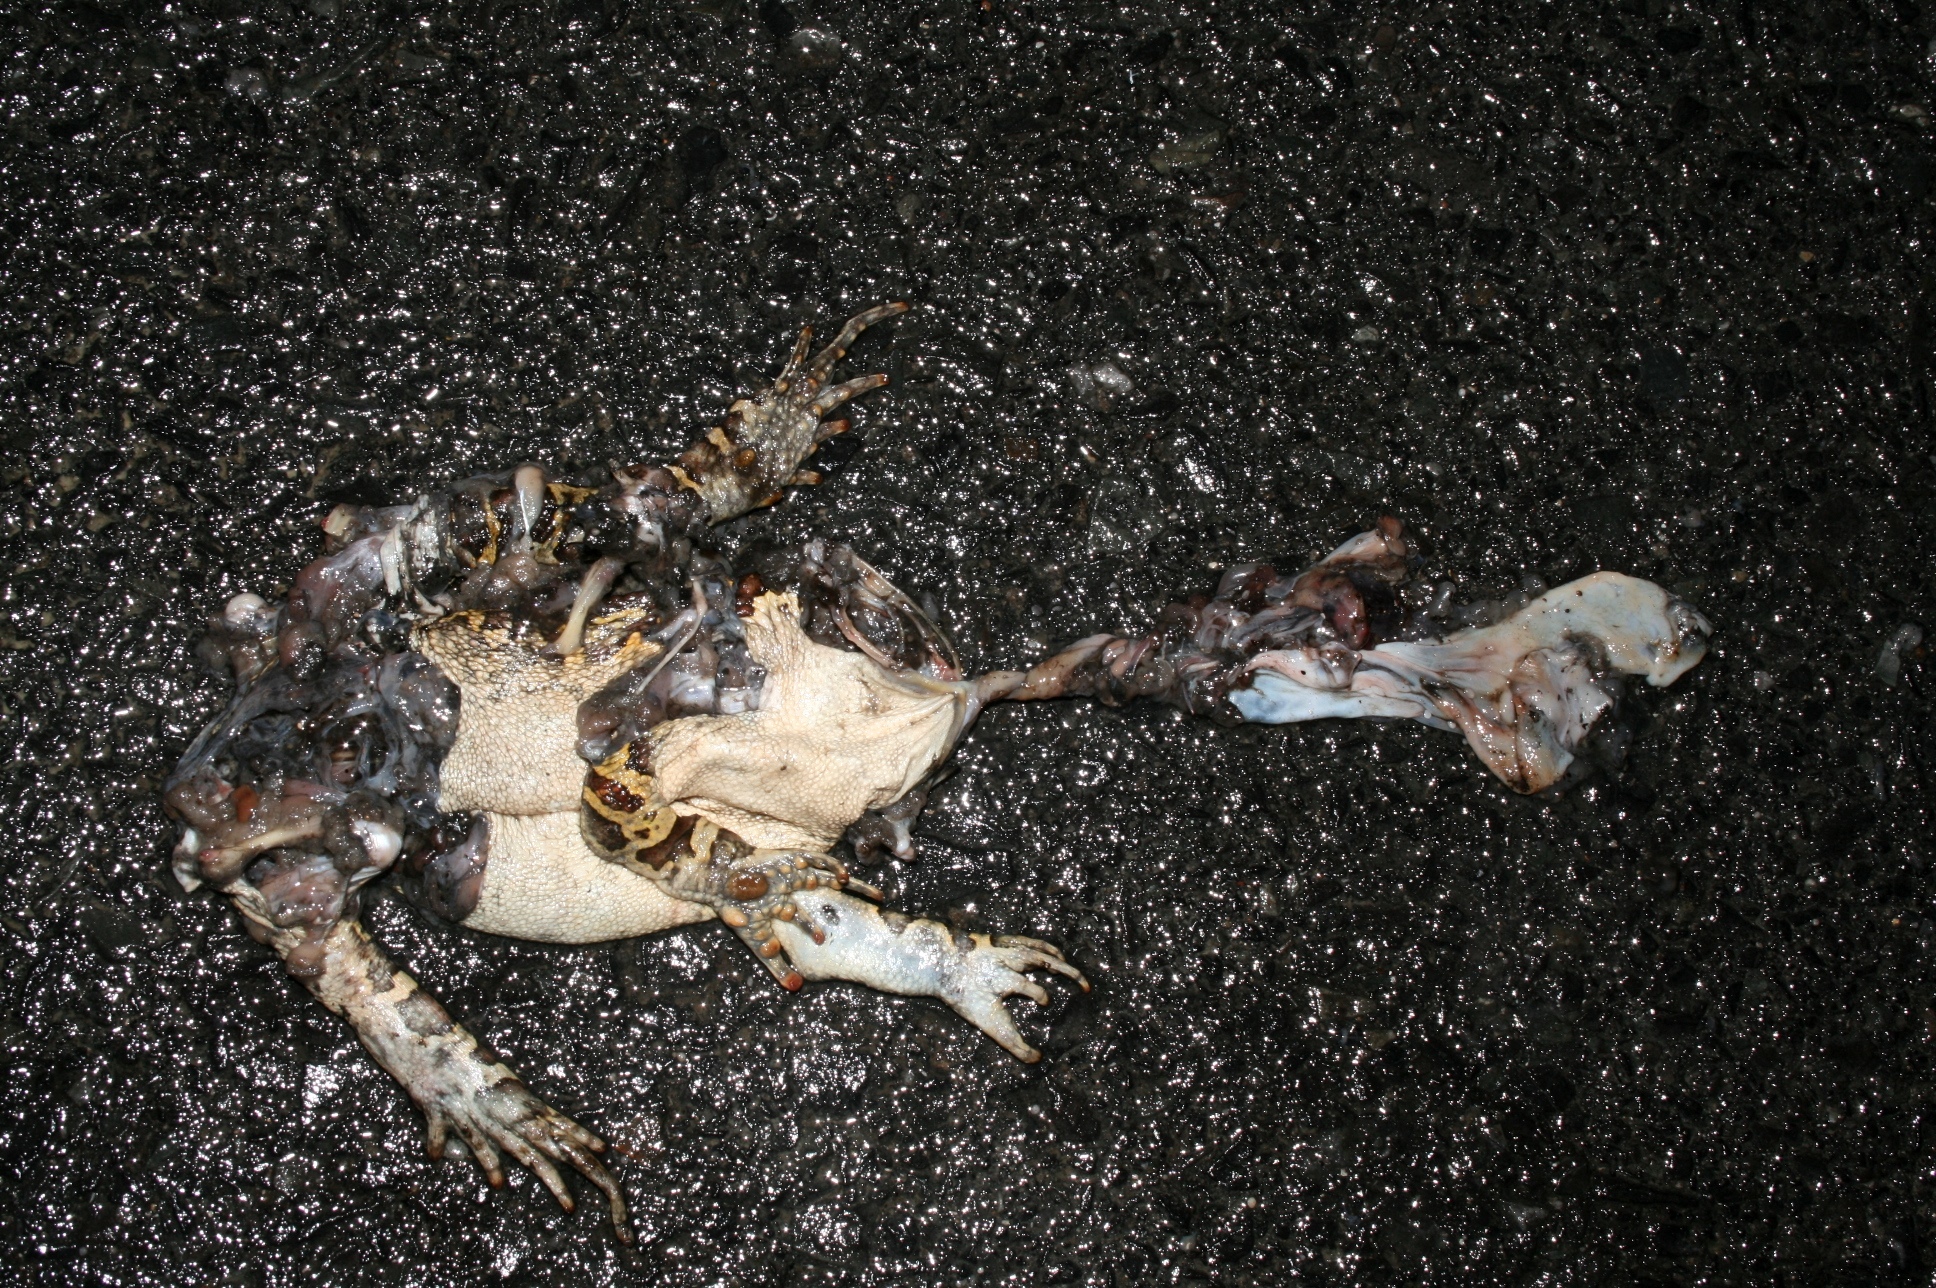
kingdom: Animalia
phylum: Chordata
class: Amphibia
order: Anura
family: Bufonidae
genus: Sclerophrys
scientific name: Sclerophrys pantherina
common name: Panther toad
